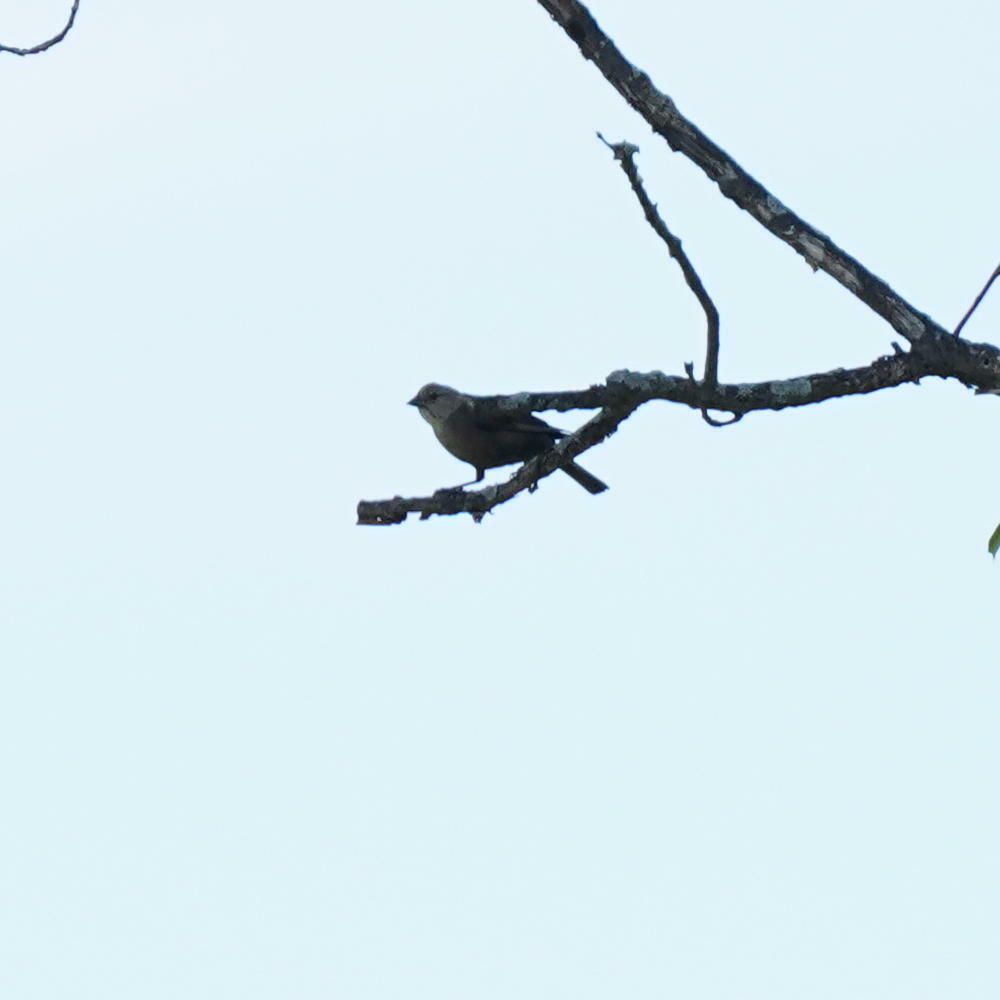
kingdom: Animalia
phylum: Chordata
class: Aves
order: Passeriformes
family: Icteridae
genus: Molothrus
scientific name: Molothrus ater
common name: Brown-headed cowbird
